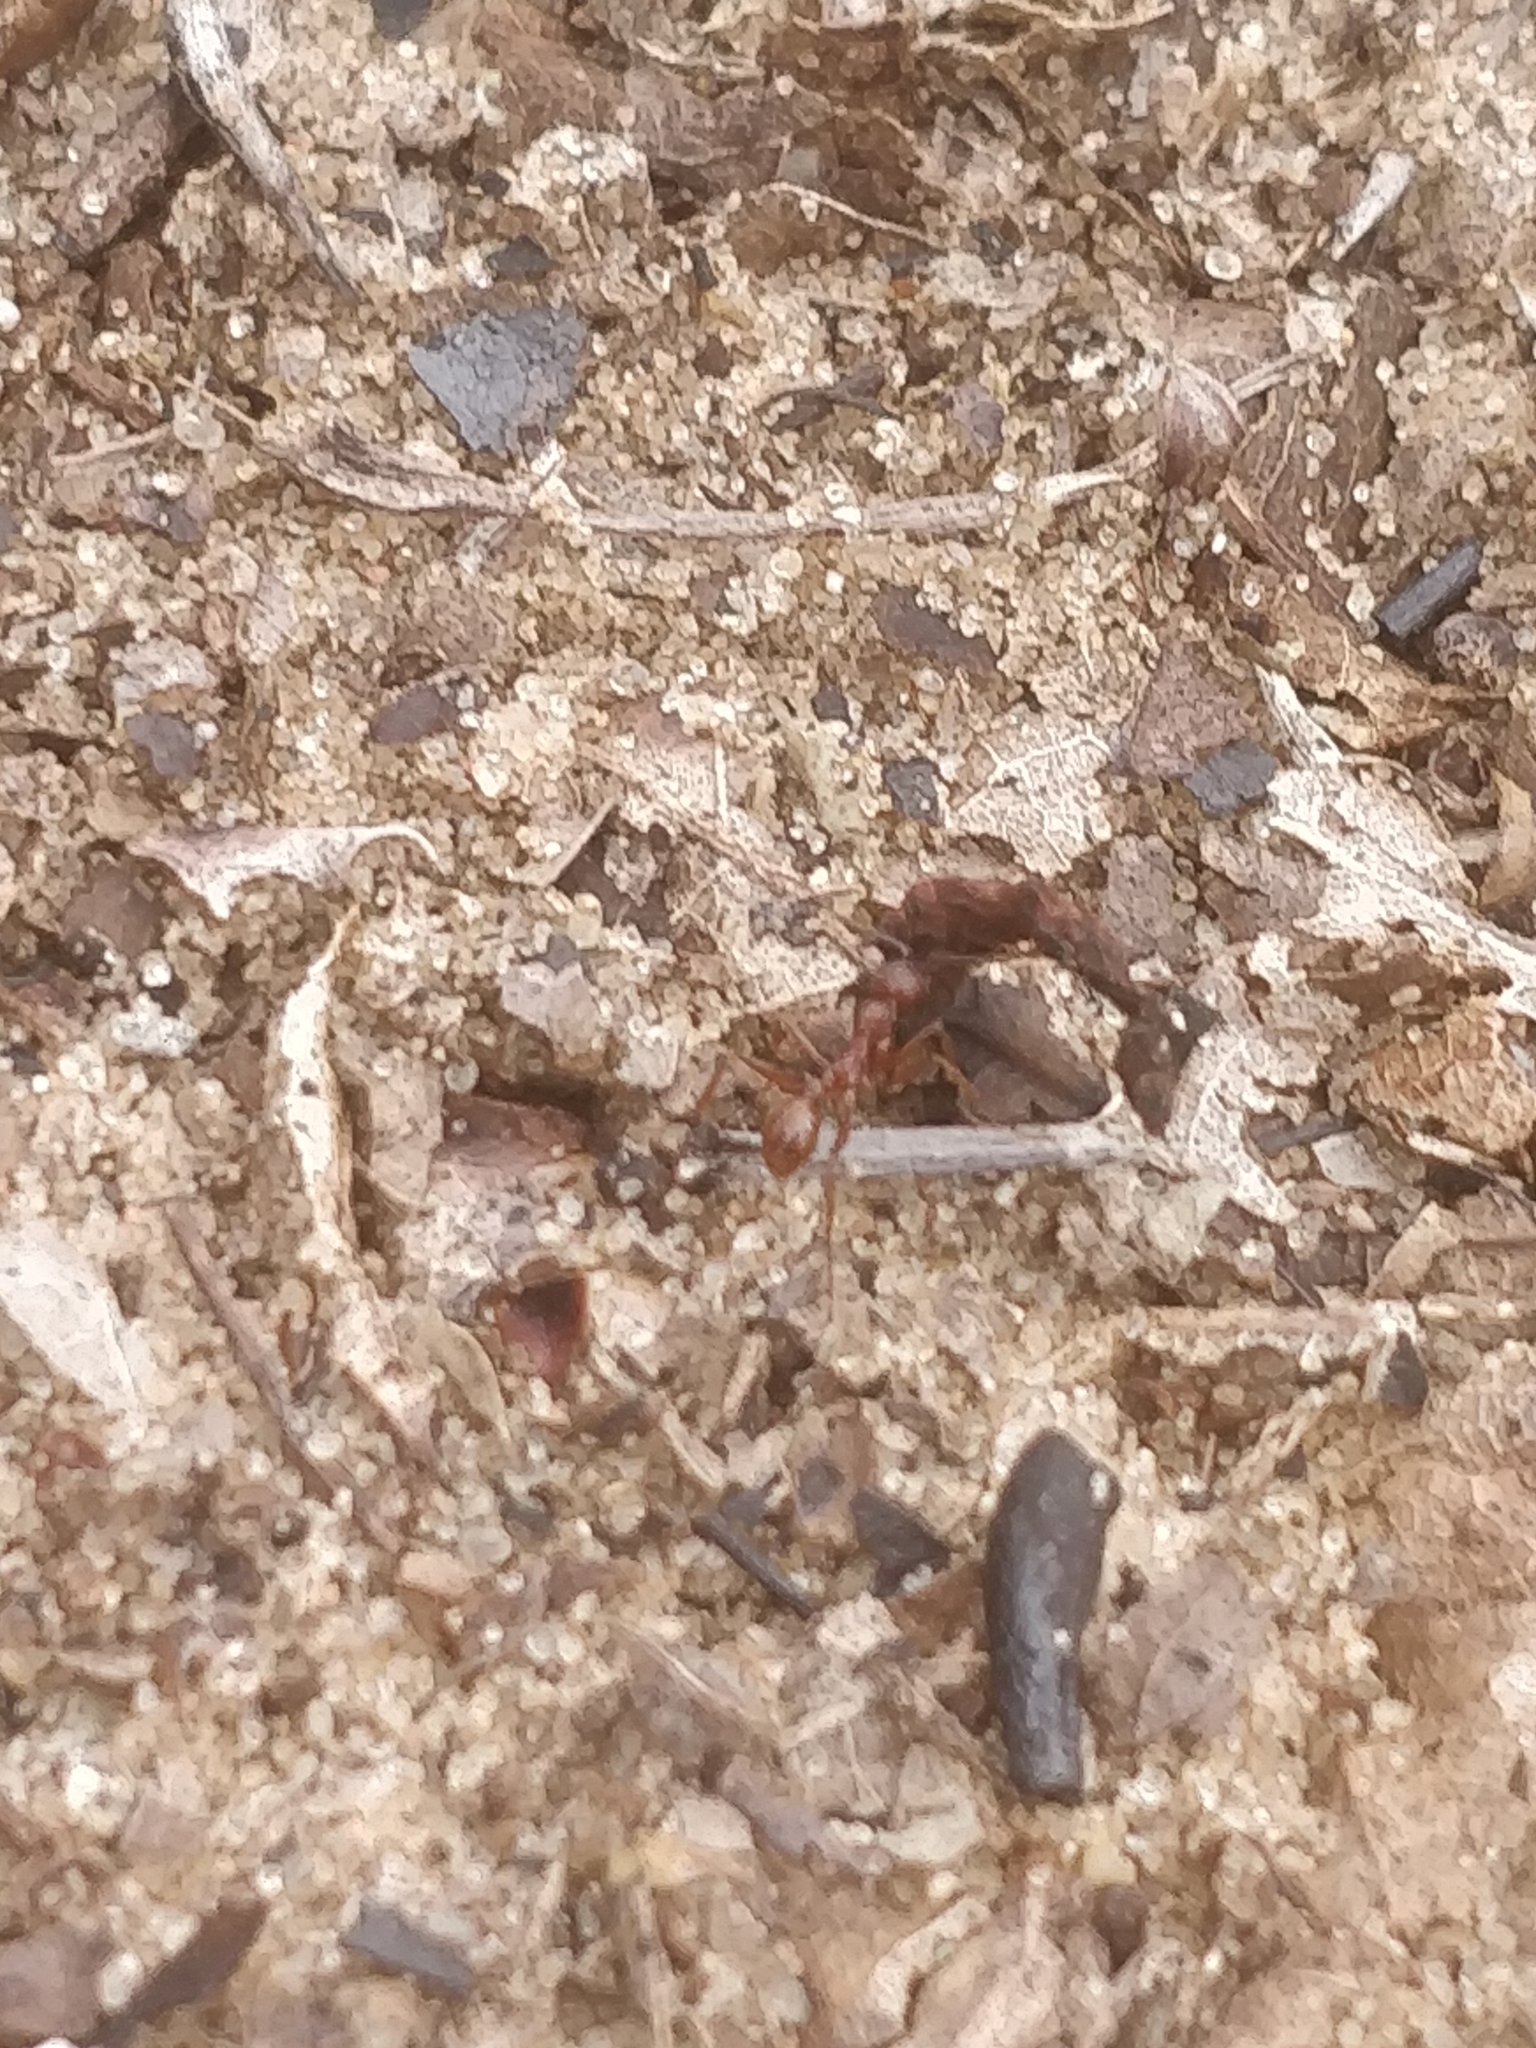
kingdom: Animalia
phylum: Arthropoda
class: Insecta
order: Hymenoptera
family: Formicidae
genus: Aphaenogaster
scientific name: Aphaenogaster treatae
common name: Treat's collared ant
